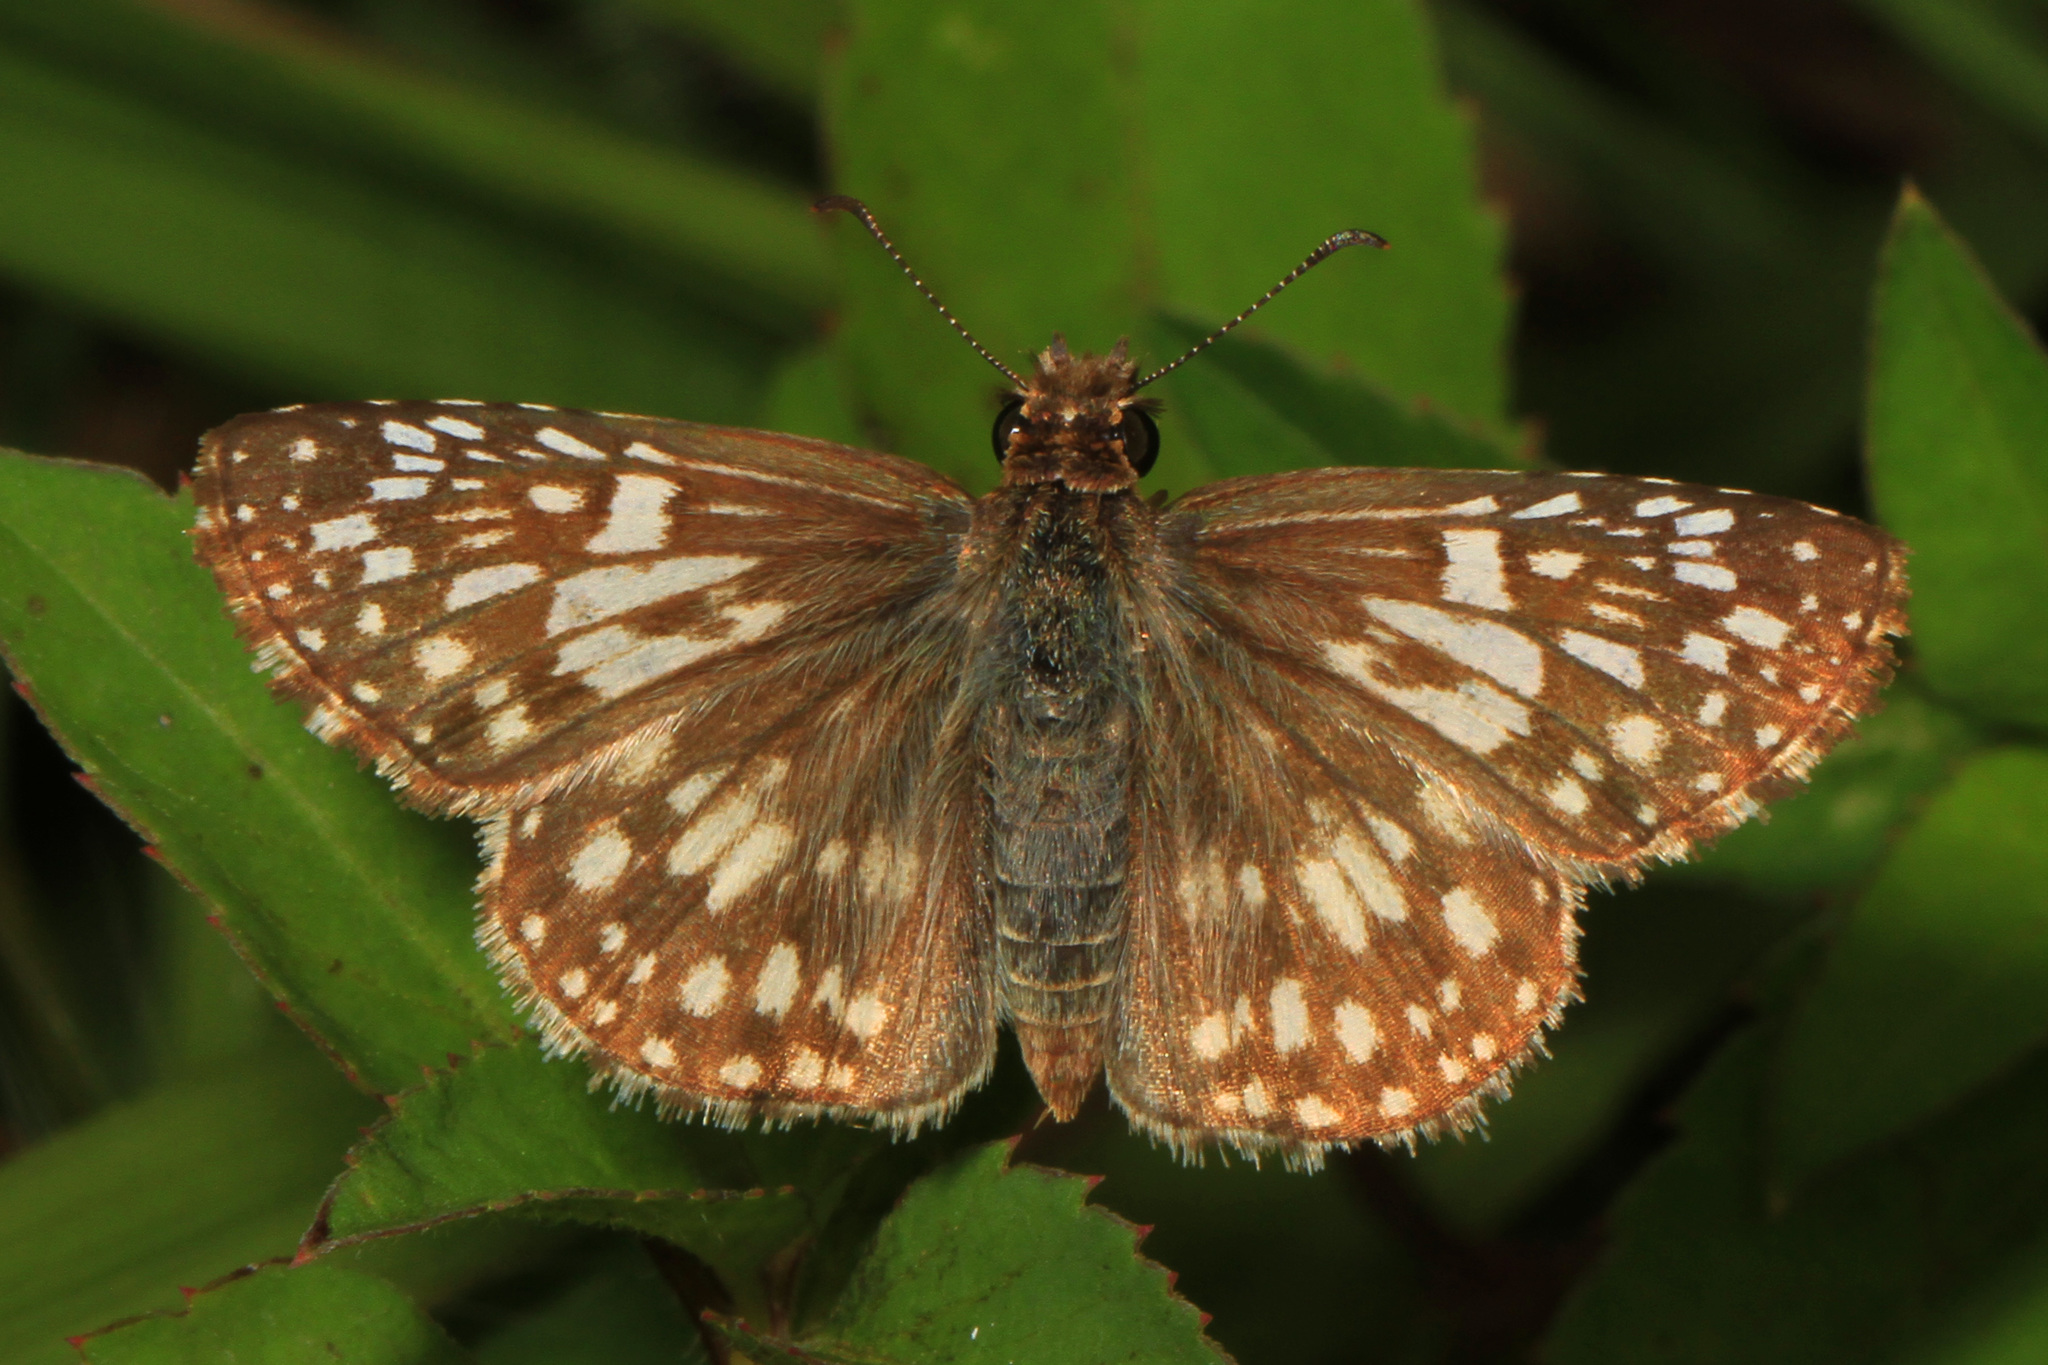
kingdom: Animalia
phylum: Arthropoda
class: Insecta
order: Lepidoptera
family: Hesperiidae
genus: Pyrgus
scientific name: Pyrgus oileus
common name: Tropical checkered-skipper
